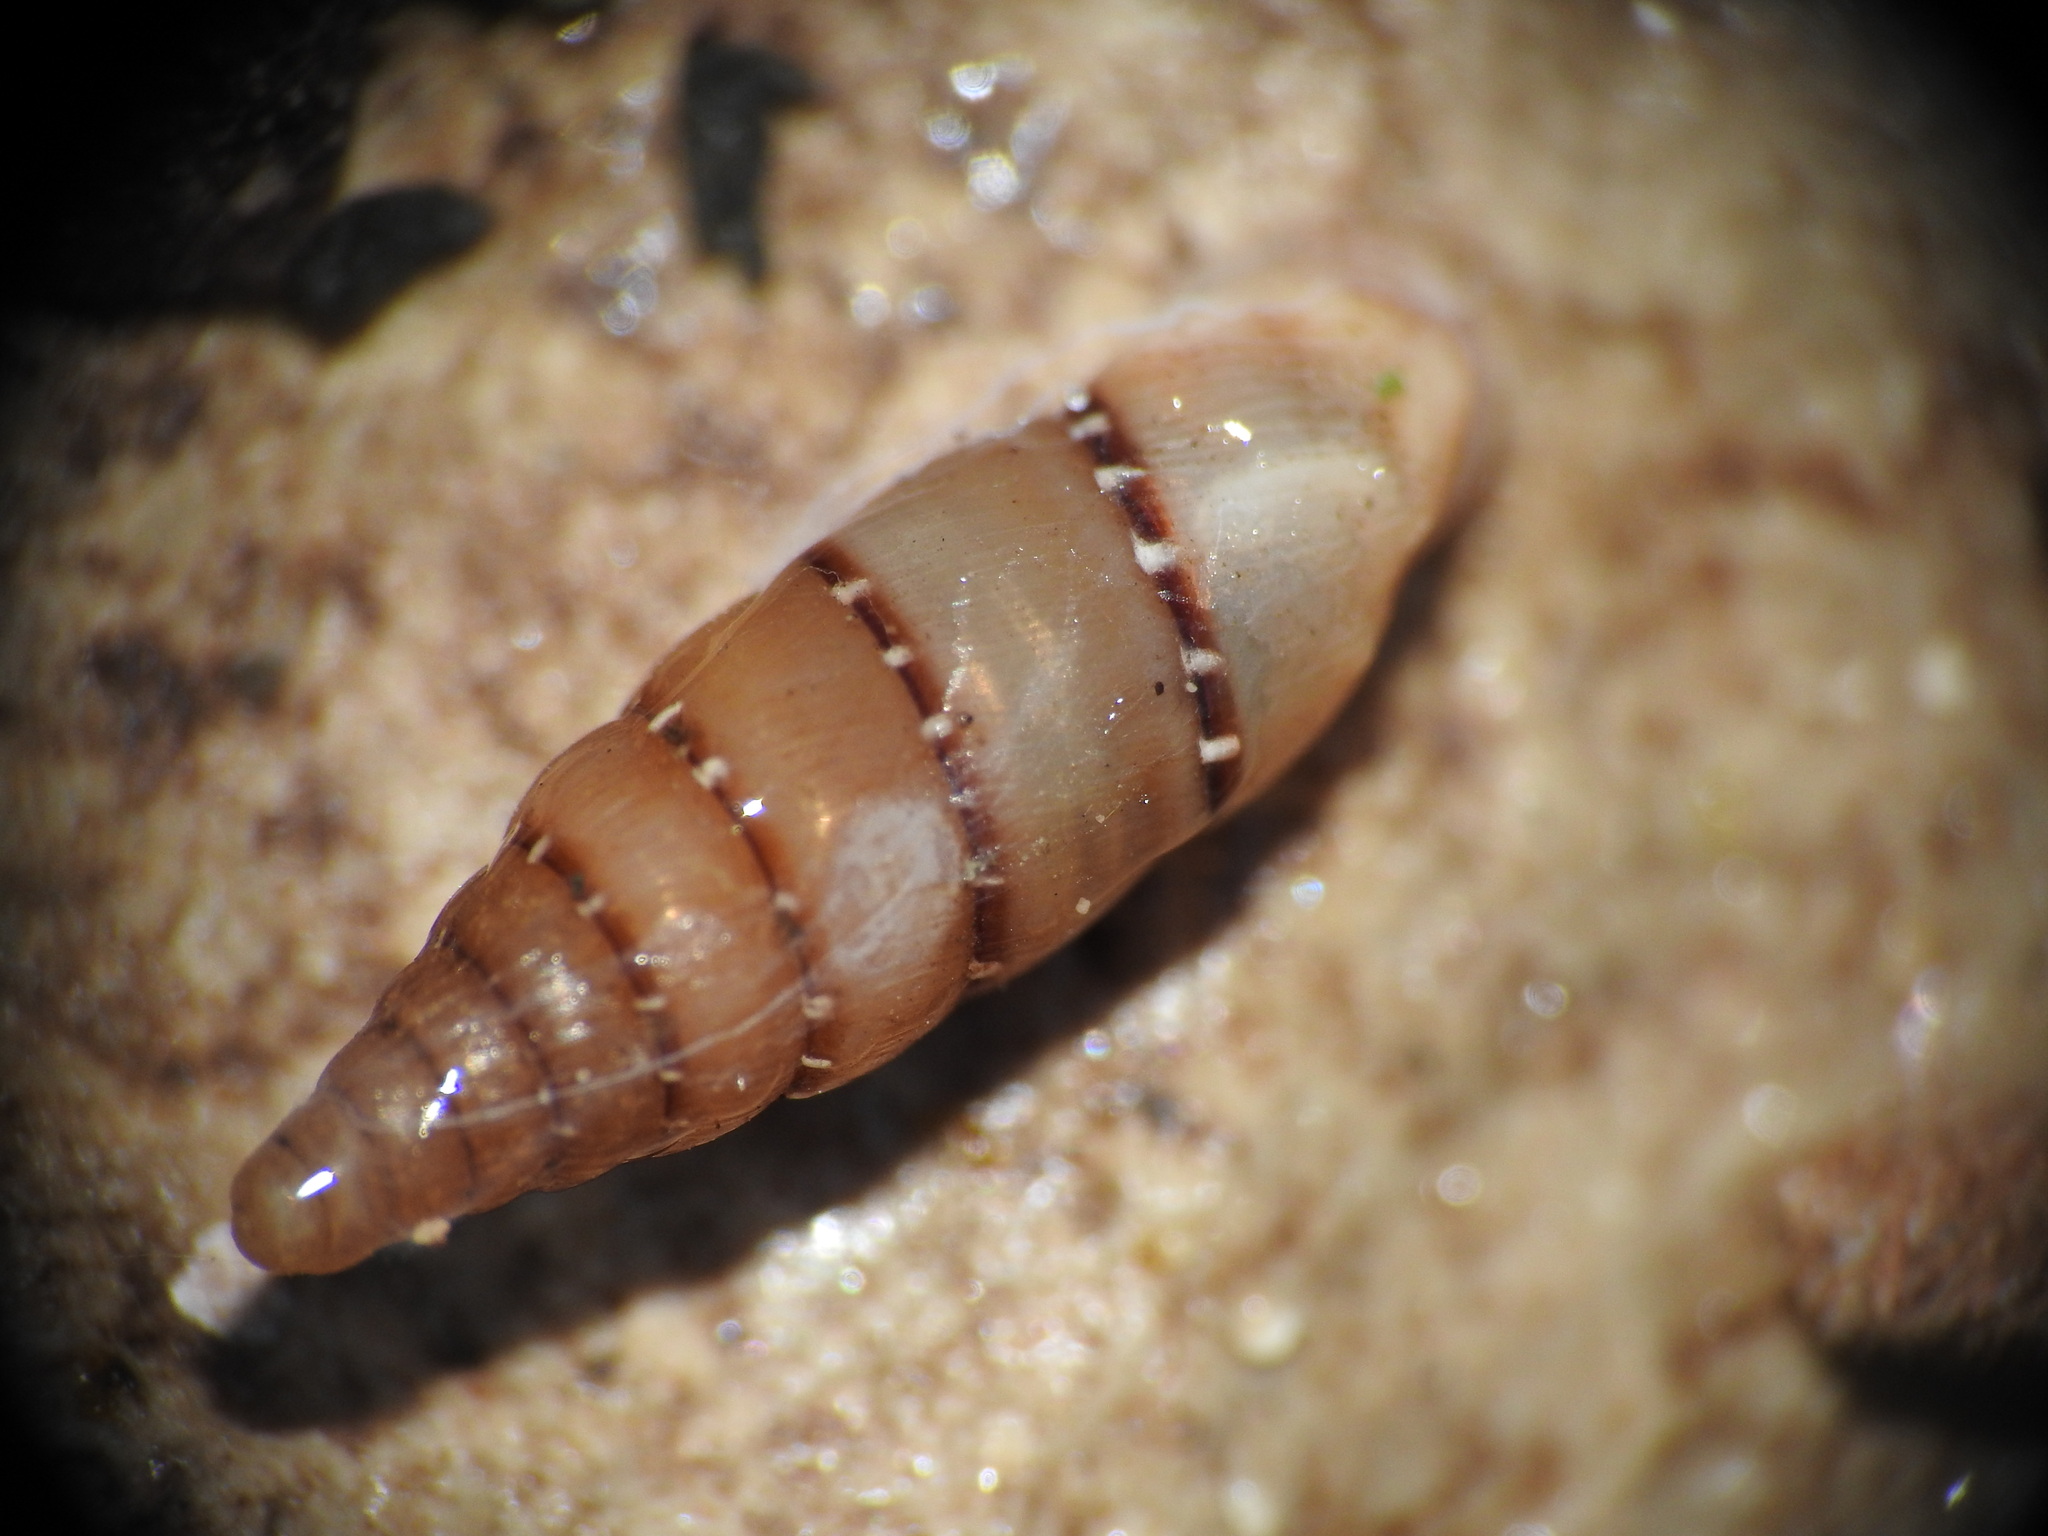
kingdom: Animalia
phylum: Mollusca
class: Gastropoda
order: Stylommatophora
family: Clausiliidae
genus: Papillifera
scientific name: Papillifera papillaris
